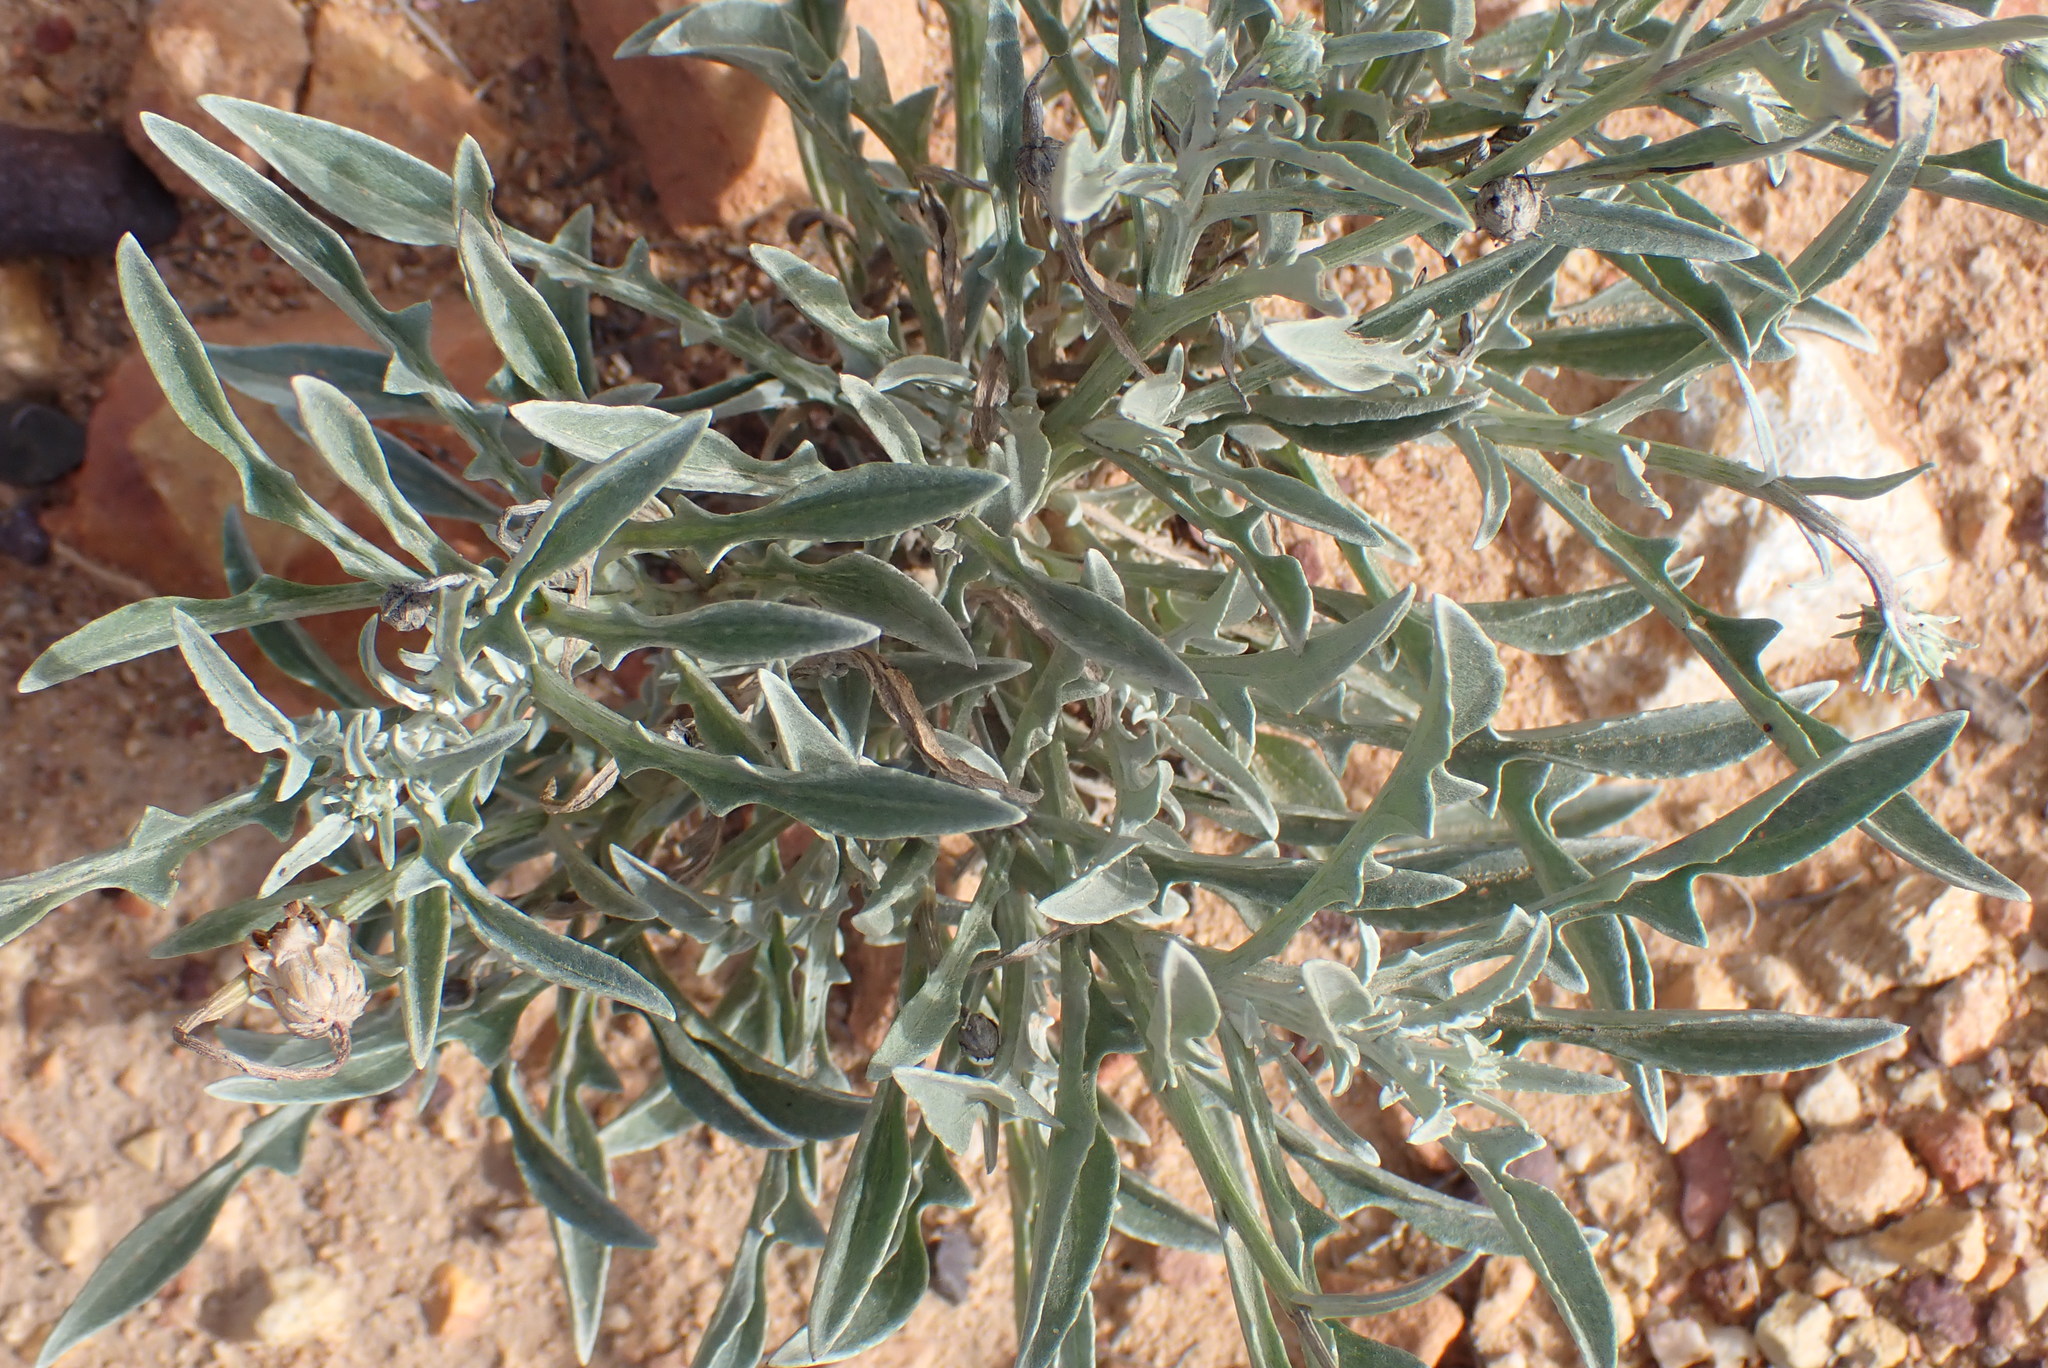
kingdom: Plantae
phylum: Tracheophyta
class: Magnoliopsida
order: Asterales
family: Asteraceae
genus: Arctotis
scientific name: Arctotis lanceolata
